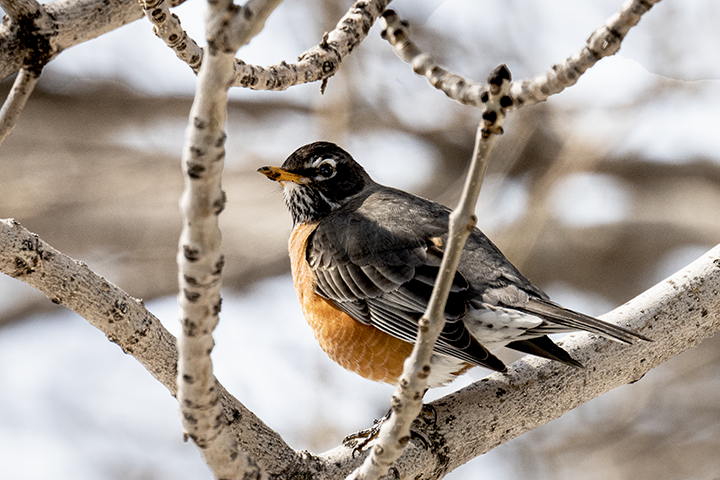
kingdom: Animalia
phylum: Chordata
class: Aves
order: Passeriformes
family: Turdidae
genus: Turdus
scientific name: Turdus migratorius
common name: American robin
